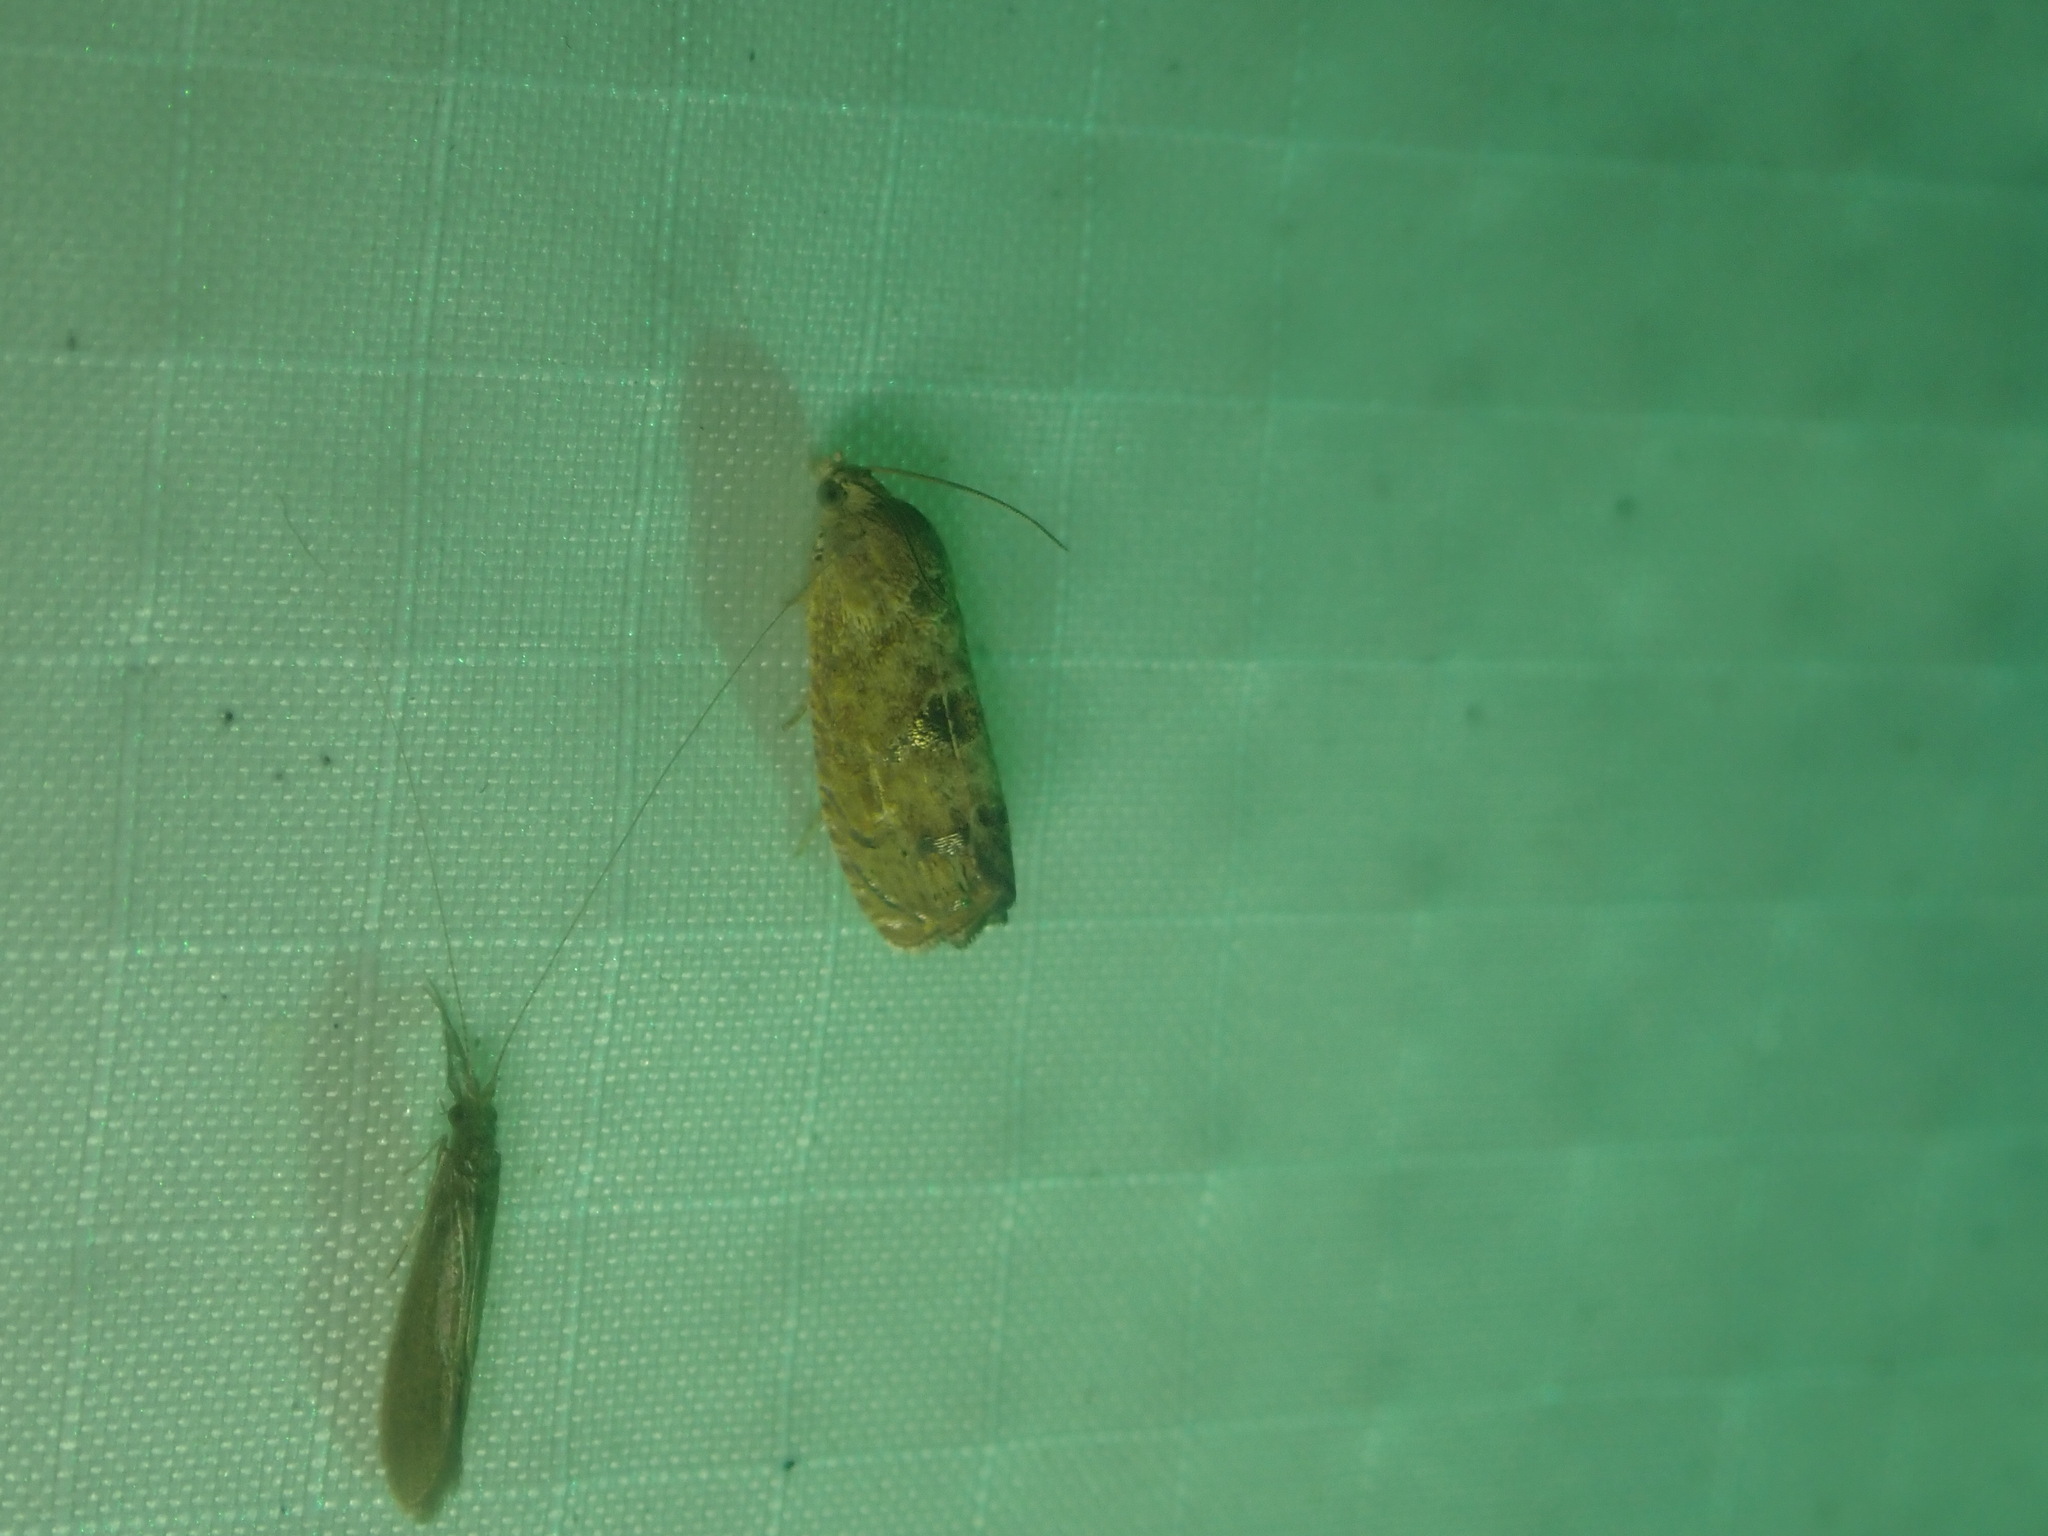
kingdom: Animalia
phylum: Arthropoda
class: Insecta
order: Lepidoptera
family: Tortricidae
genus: Cydia
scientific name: Cydia latiferreana
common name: Filbertworm moth
